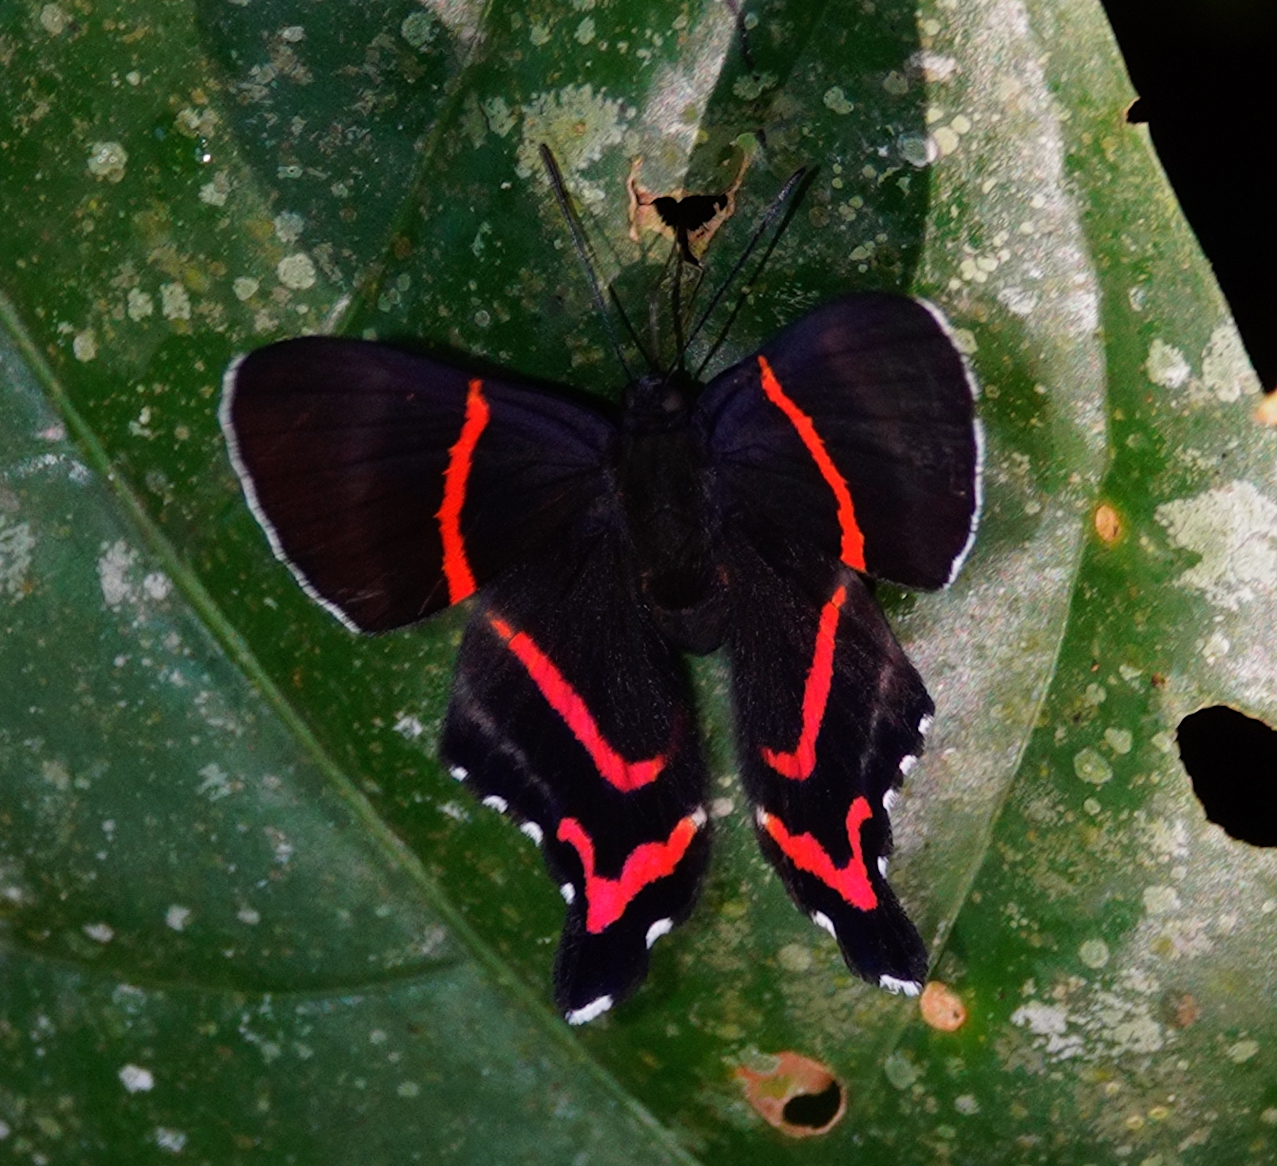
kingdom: Animalia
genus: Ancyluris
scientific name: Ancyluris aulestes
